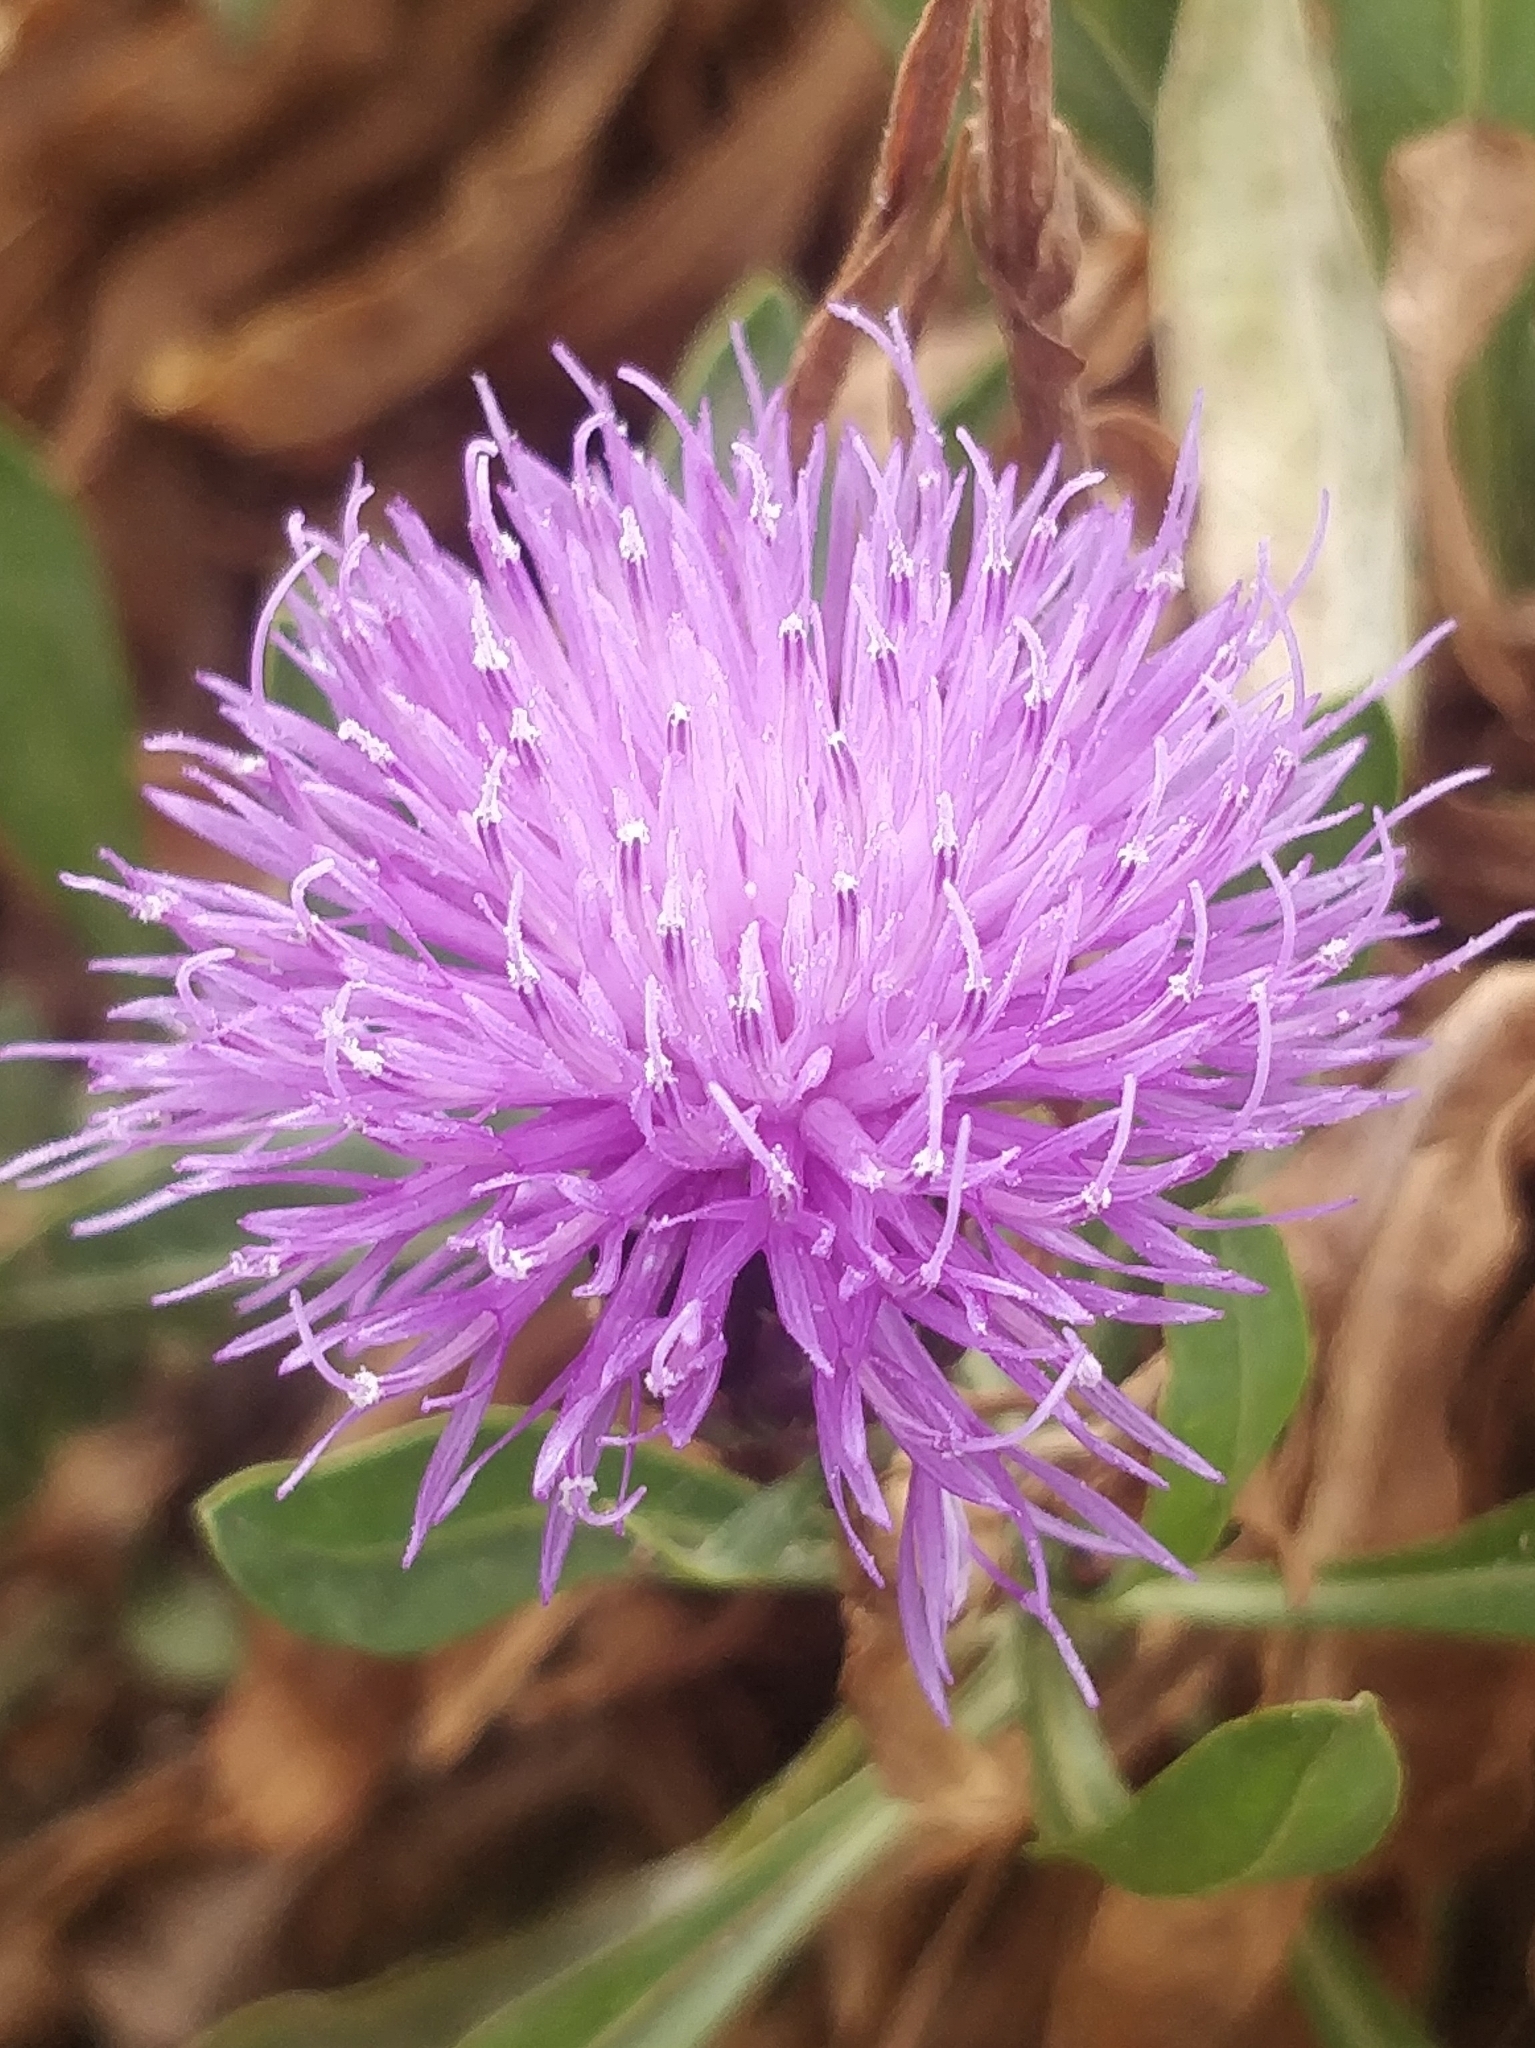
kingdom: Plantae
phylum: Tracheophyta
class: Magnoliopsida
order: Asterales
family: Asteraceae
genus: Cheirolophus
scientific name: Cheirolophus massonianus
